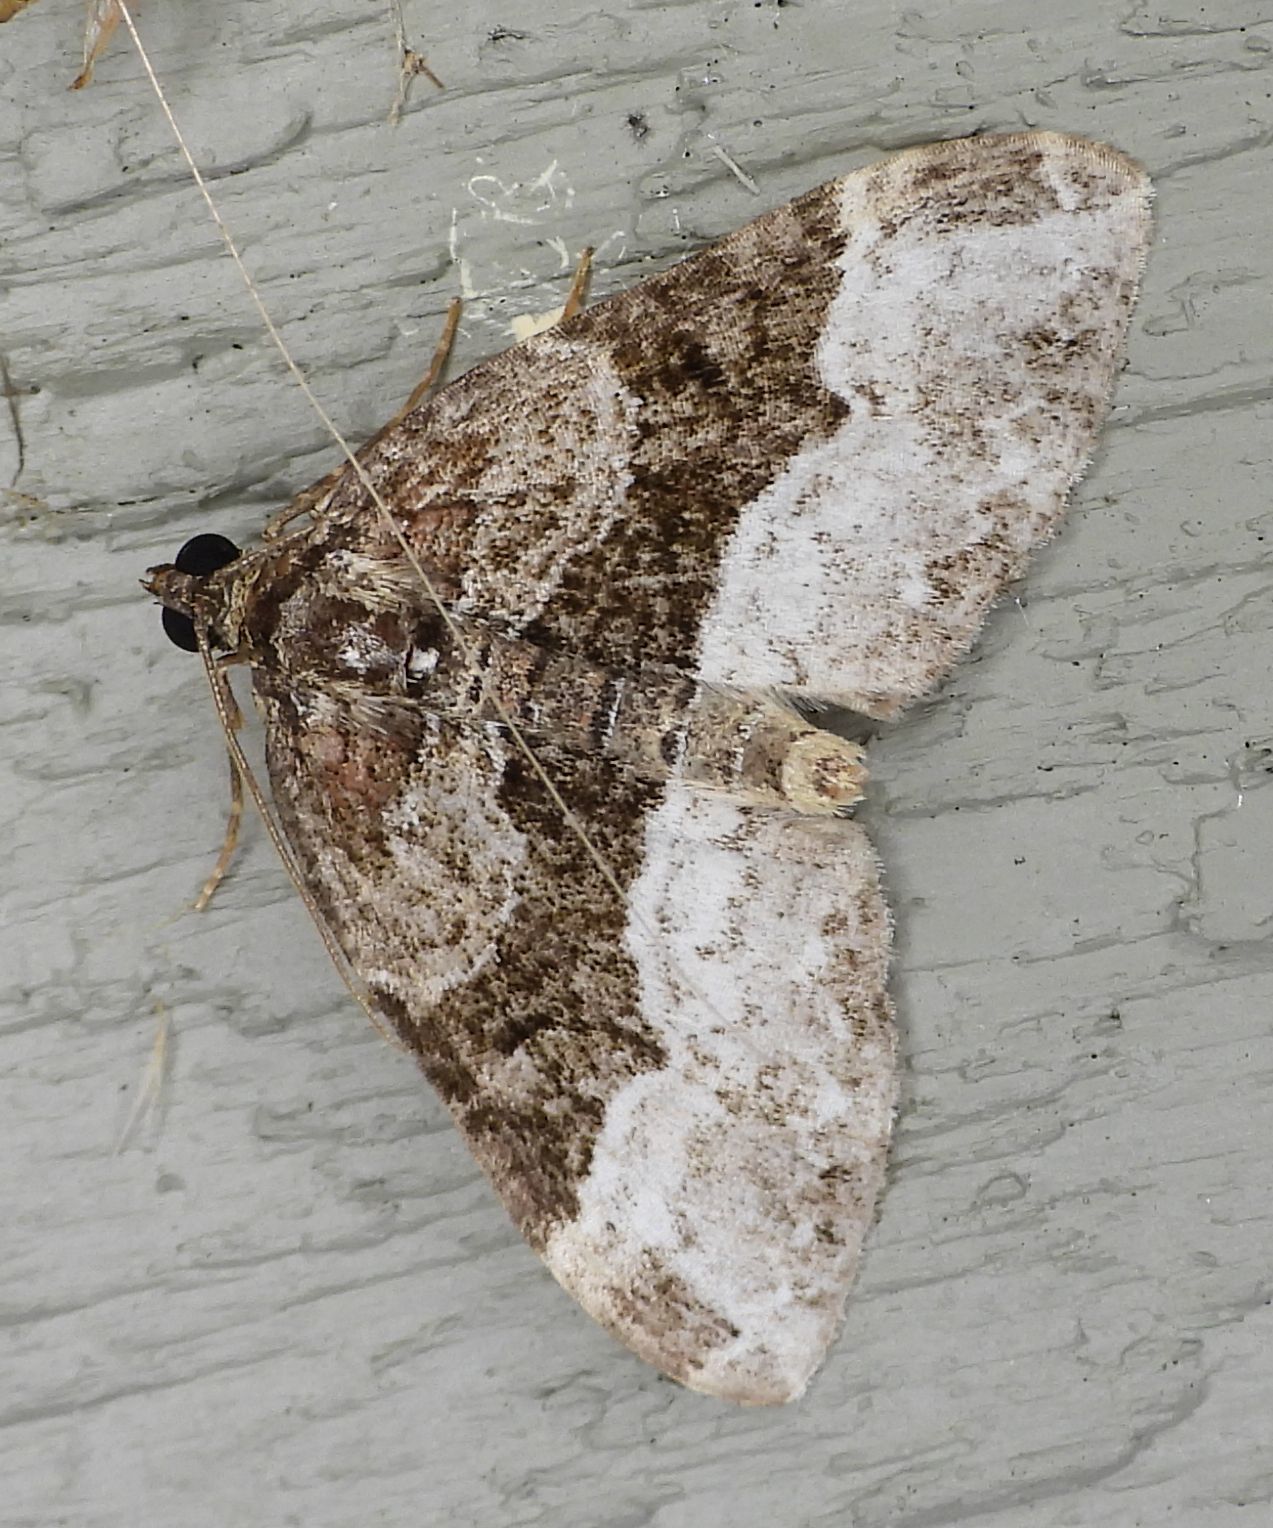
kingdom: Animalia
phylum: Arthropoda
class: Insecta
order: Lepidoptera
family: Geometridae
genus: Euphyia
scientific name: Euphyia intermediata
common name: Sharp-angled carpet
